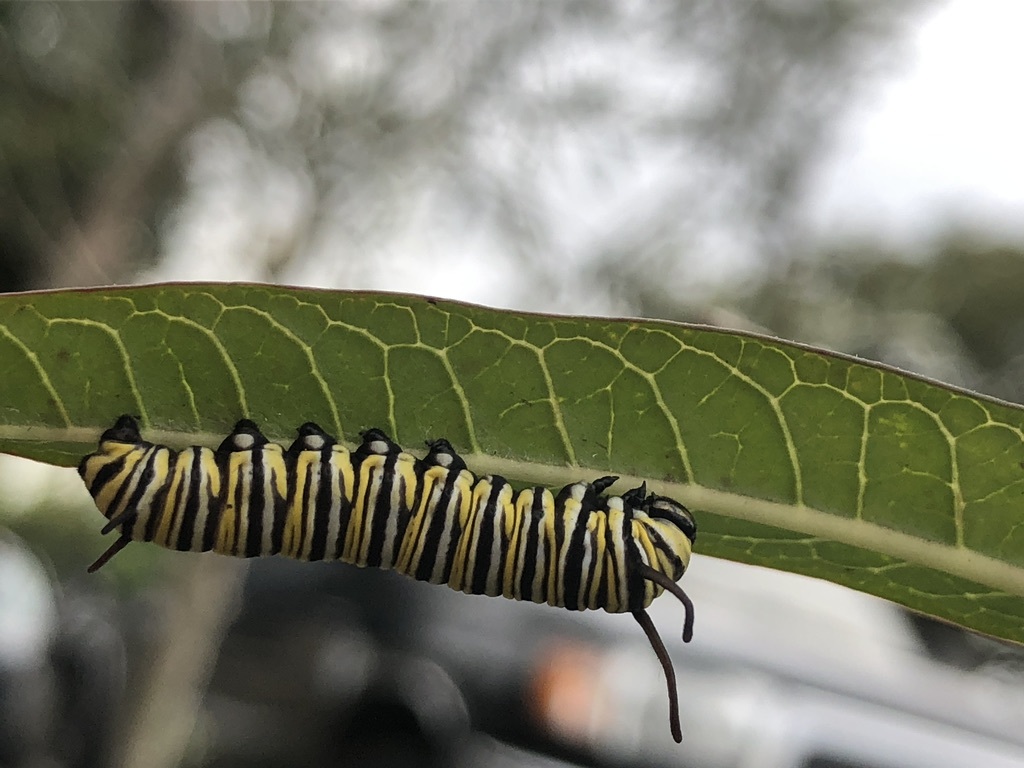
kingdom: Animalia
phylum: Arthropoda
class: Insecta
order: Lepidoptera
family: Nymphalidae
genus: Danaus
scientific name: Danaus plexippus
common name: Monarch
